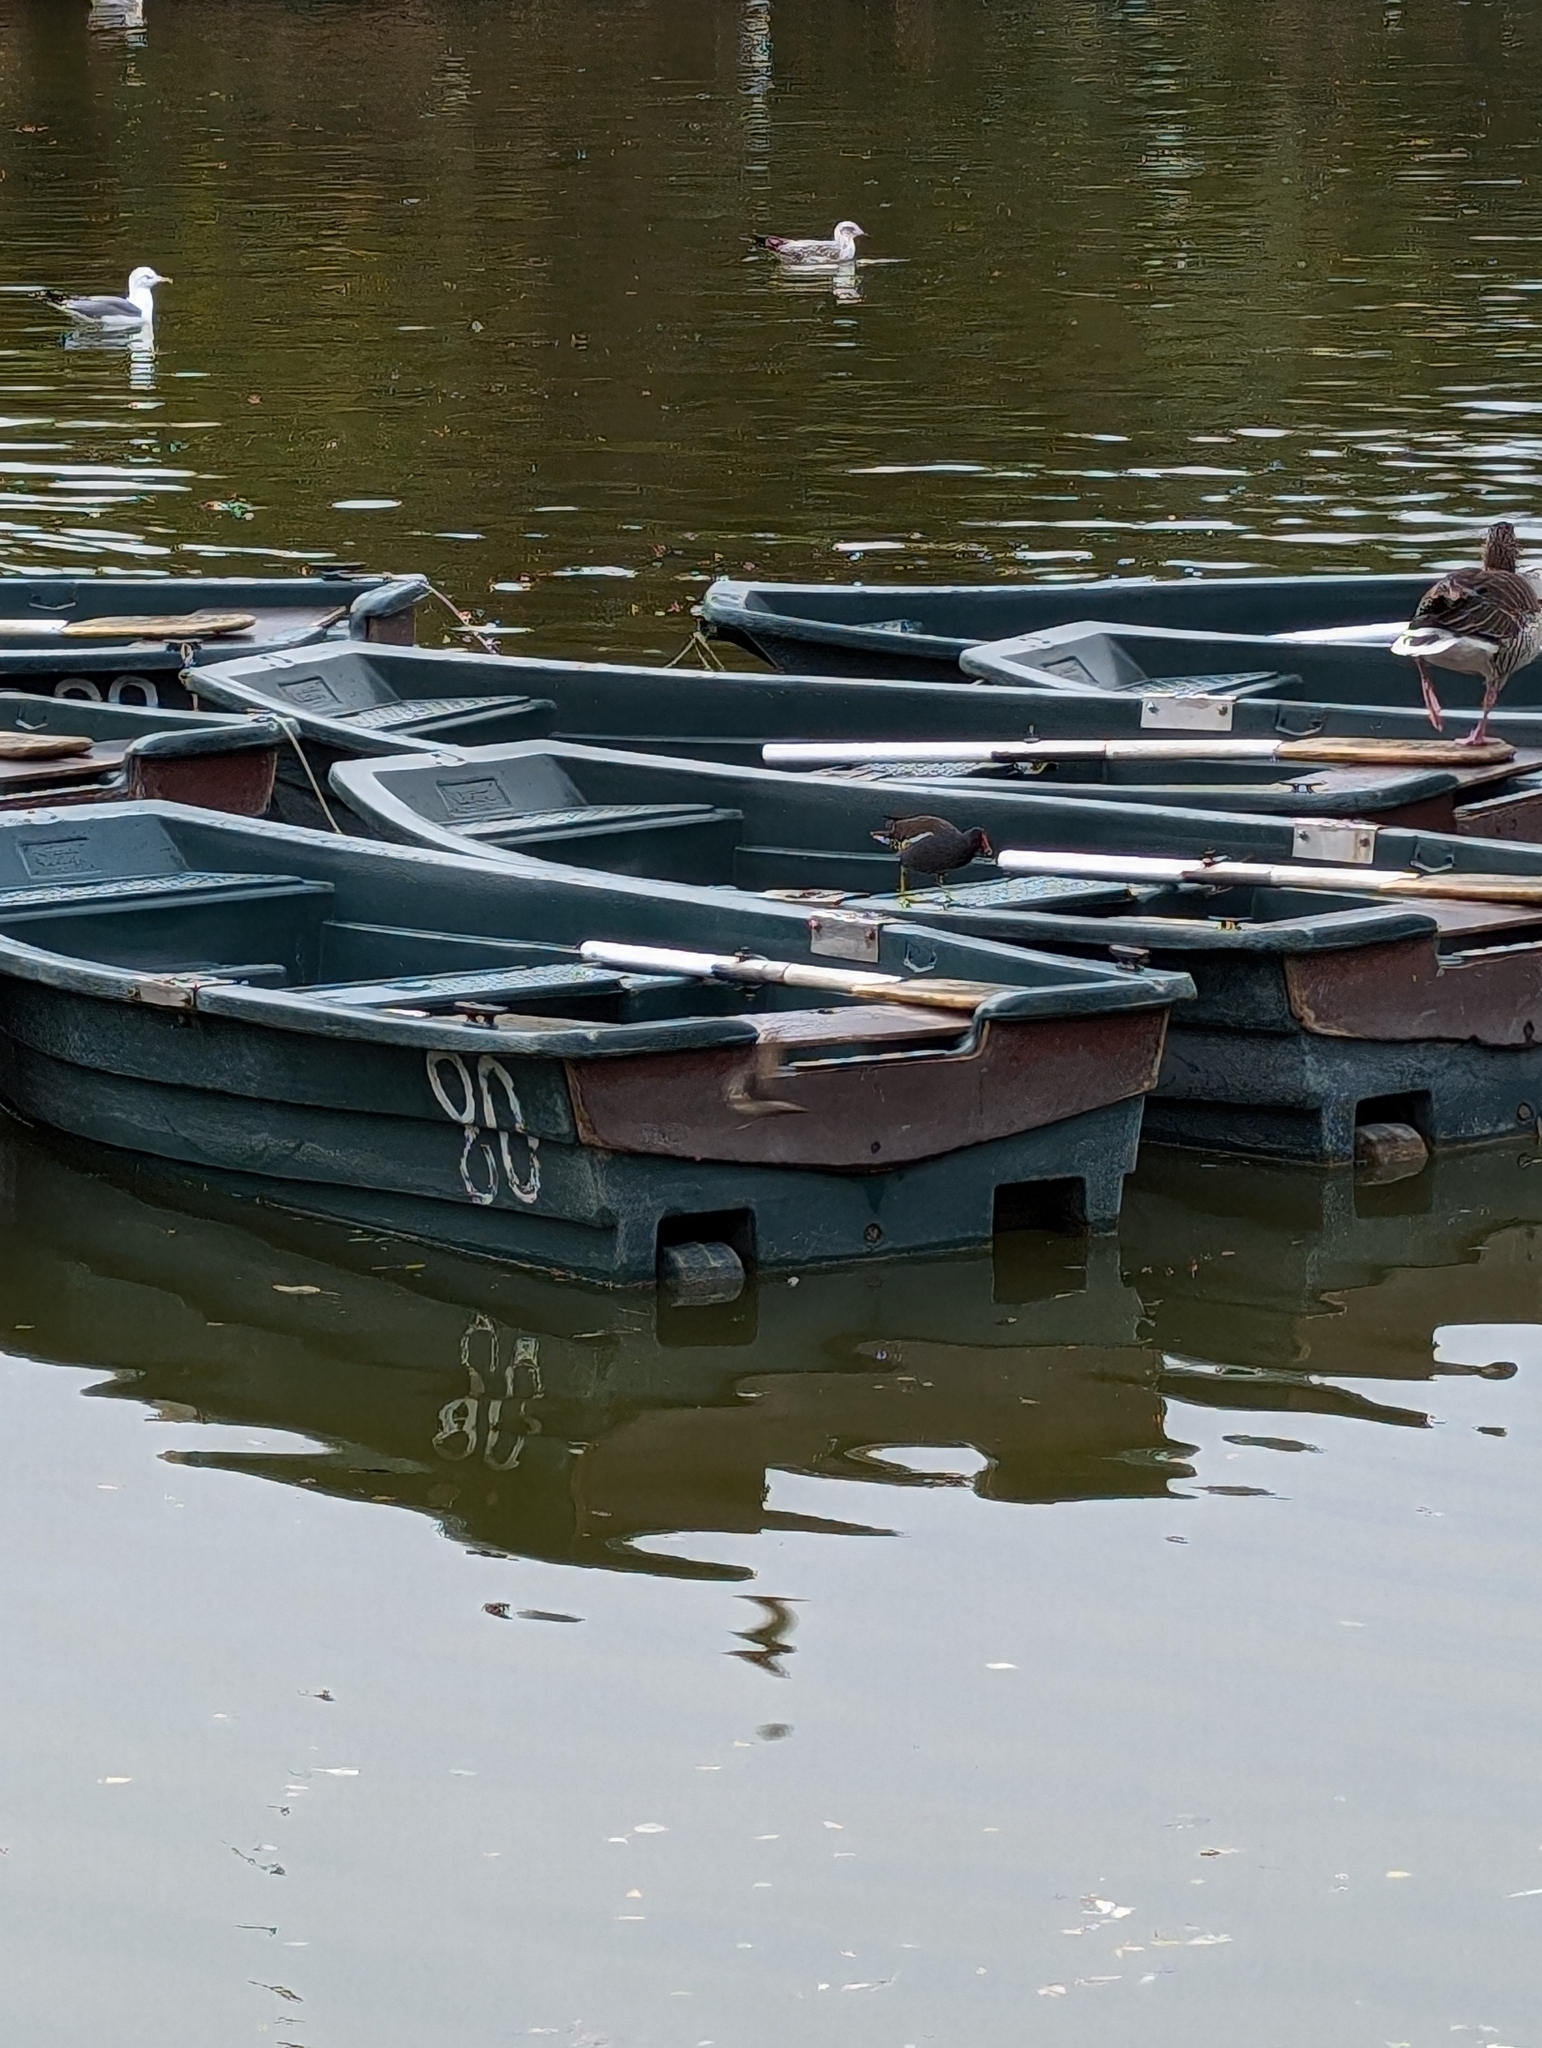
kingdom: Animalia
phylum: Chordata
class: Aves
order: Gruiformes
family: Rallidae
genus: Gallinula
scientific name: Gallinula chloropus
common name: Common moorhen
